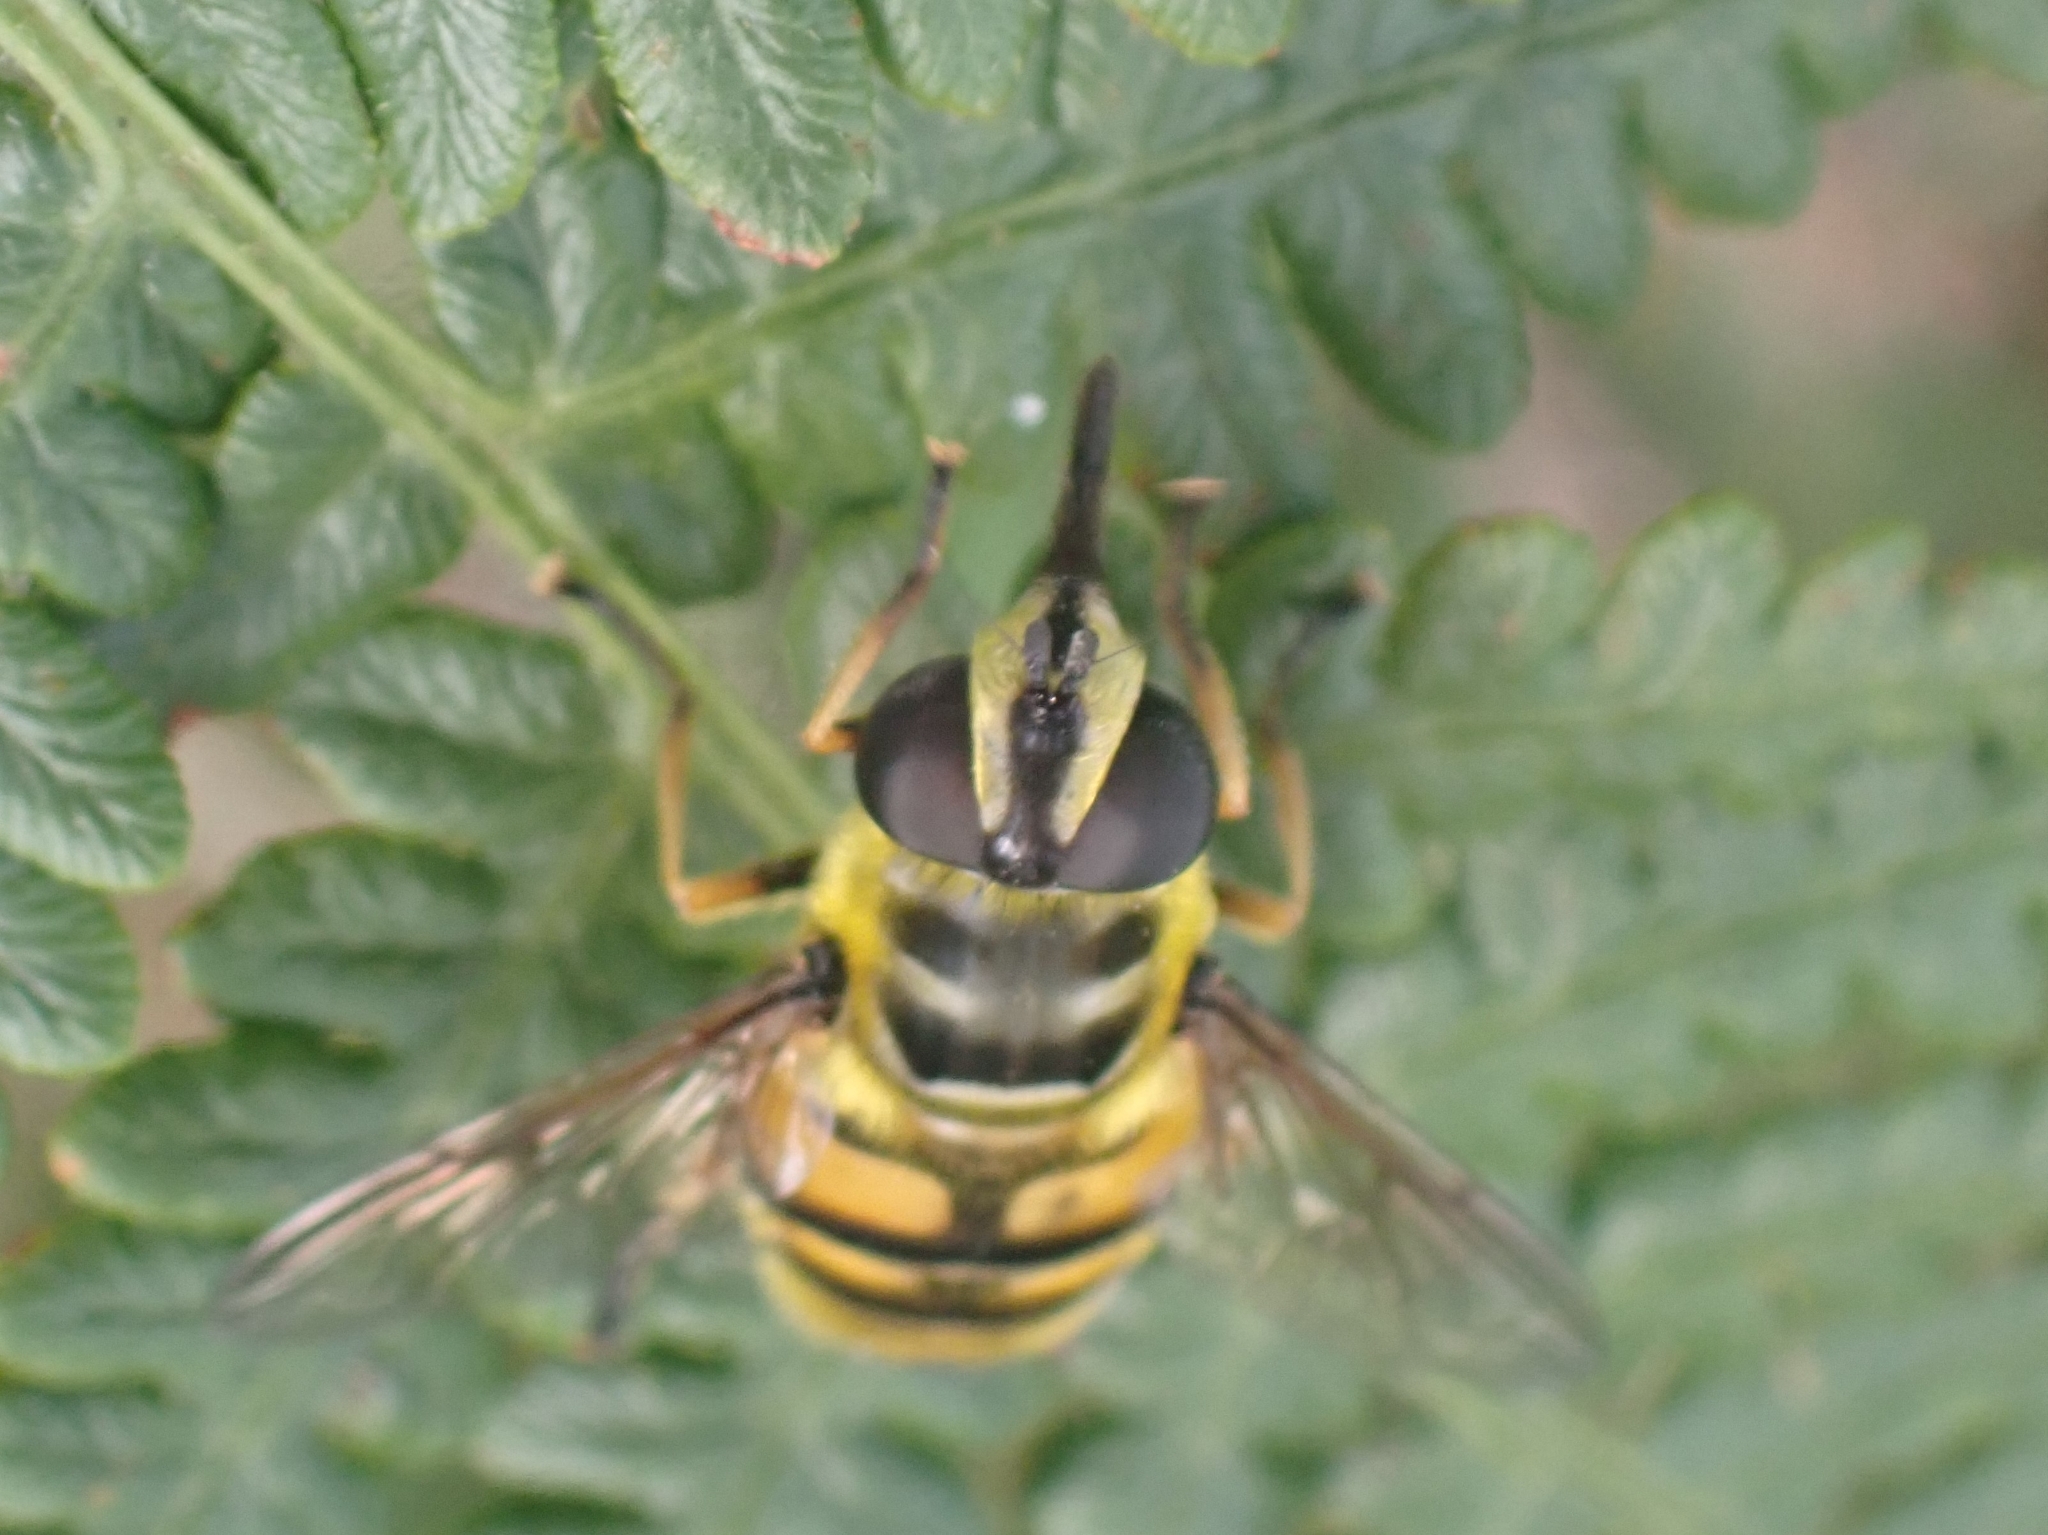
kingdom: Animalia
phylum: Arthropoda
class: Insecta
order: Diptera
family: Syrphidae
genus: Myathropa
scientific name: Myathropa florea
